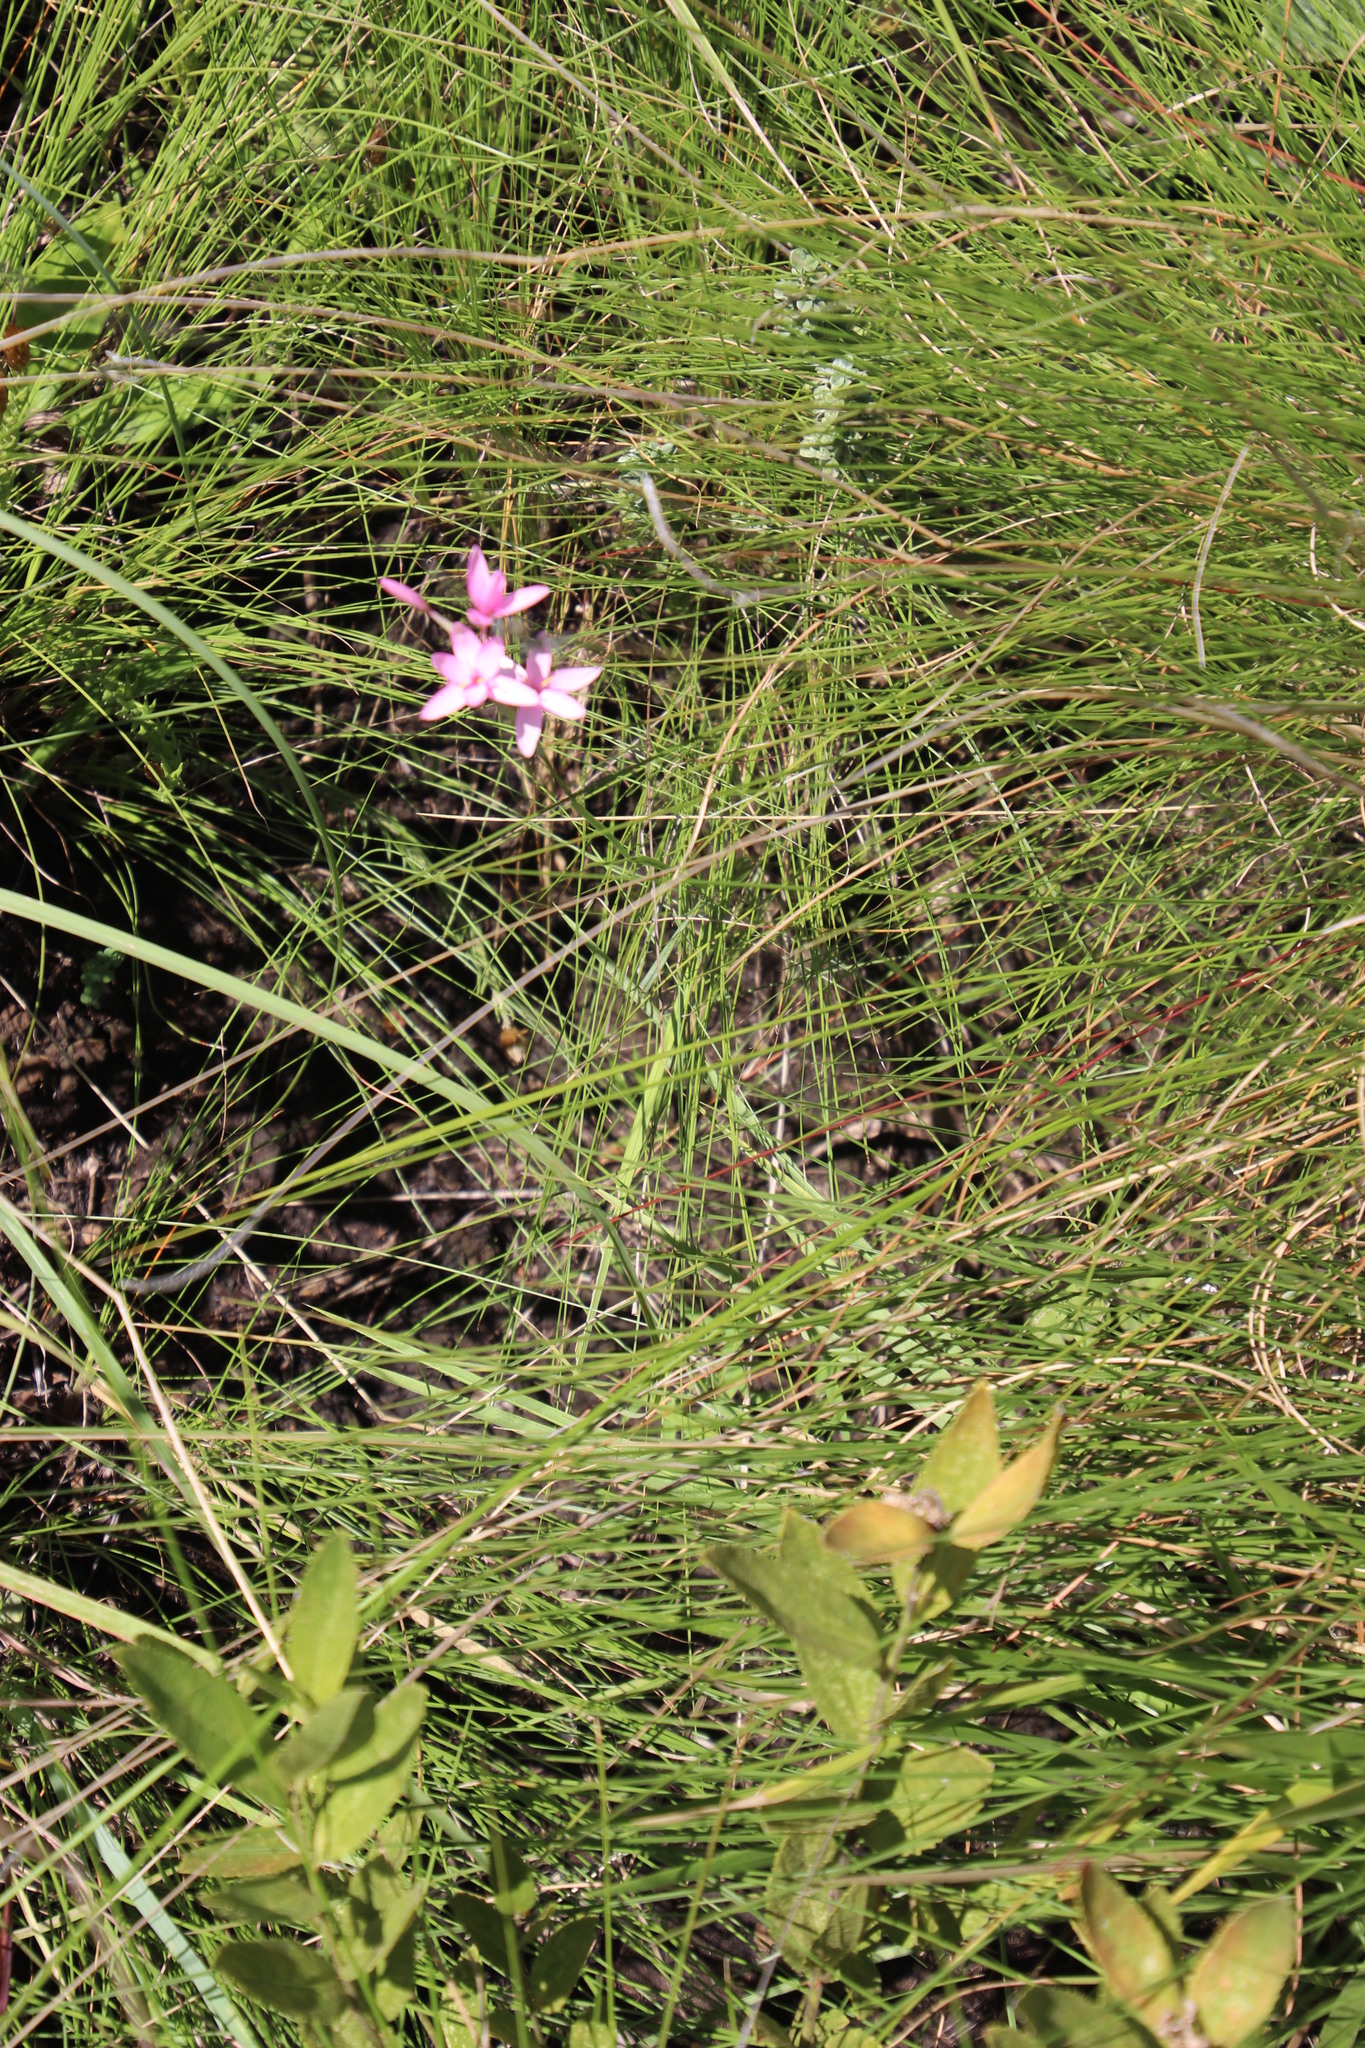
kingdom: Plantae
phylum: Tracheophyta
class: Liliopsida
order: Asparagales
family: Iridaceae
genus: Hesperantha
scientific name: Hesperantha scopulosa
